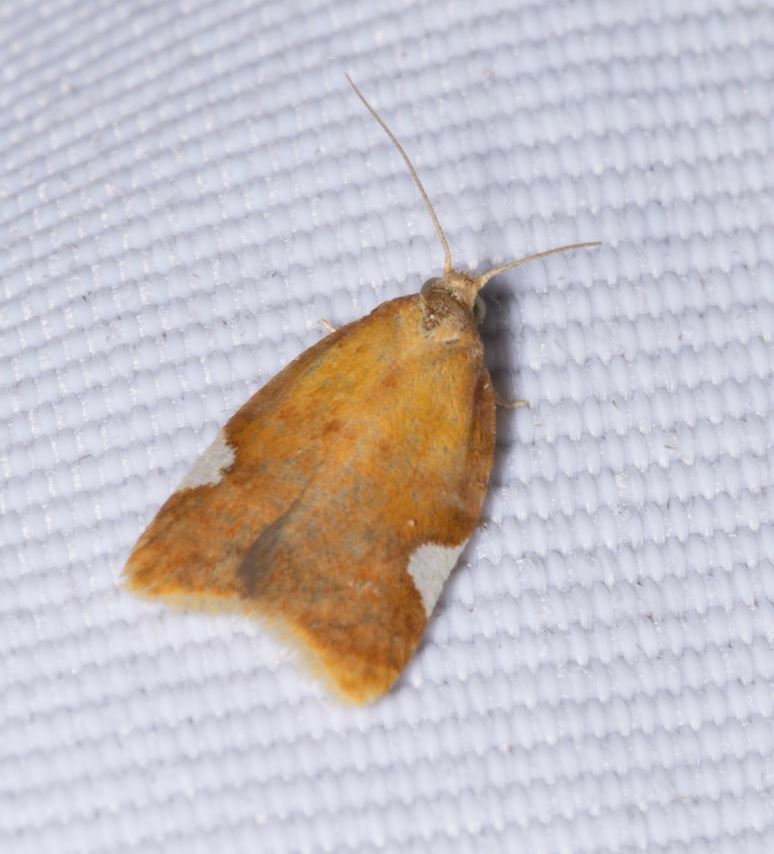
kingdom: Animalia
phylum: Arthropoda
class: Insecta
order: Lepidoptera
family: Tortricidae
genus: Acleris
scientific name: Acleris holmiana
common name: Golden leafroller moth
